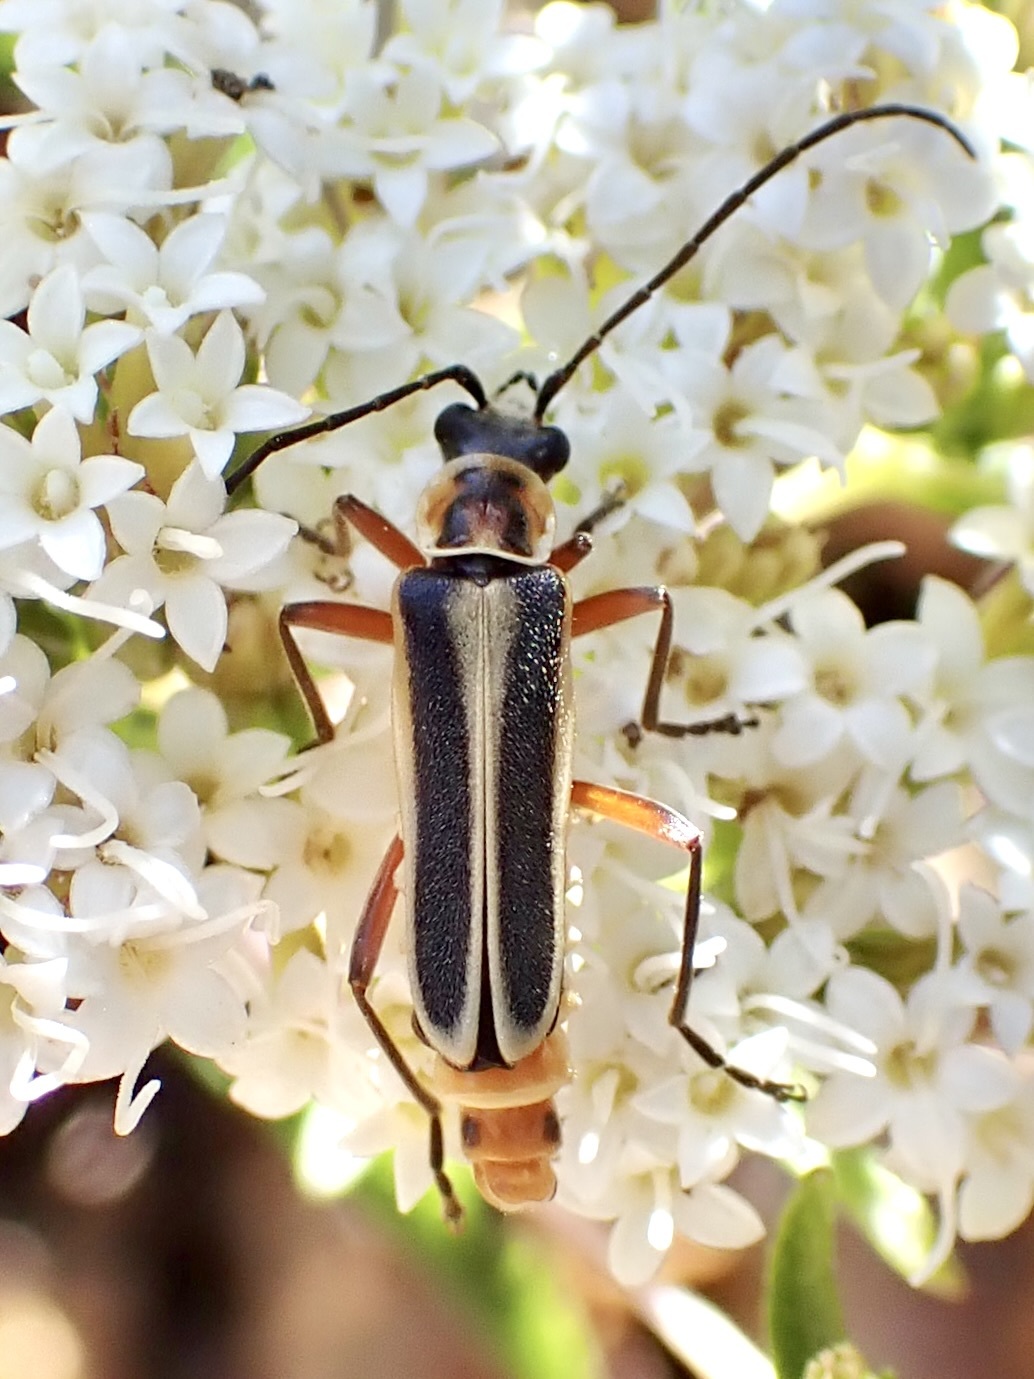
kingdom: Animalia
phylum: Arthropoda
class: Insecta
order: Coleoptera
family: Cantharidae
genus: Chauliognathus
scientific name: Chauliognathus lewisi
